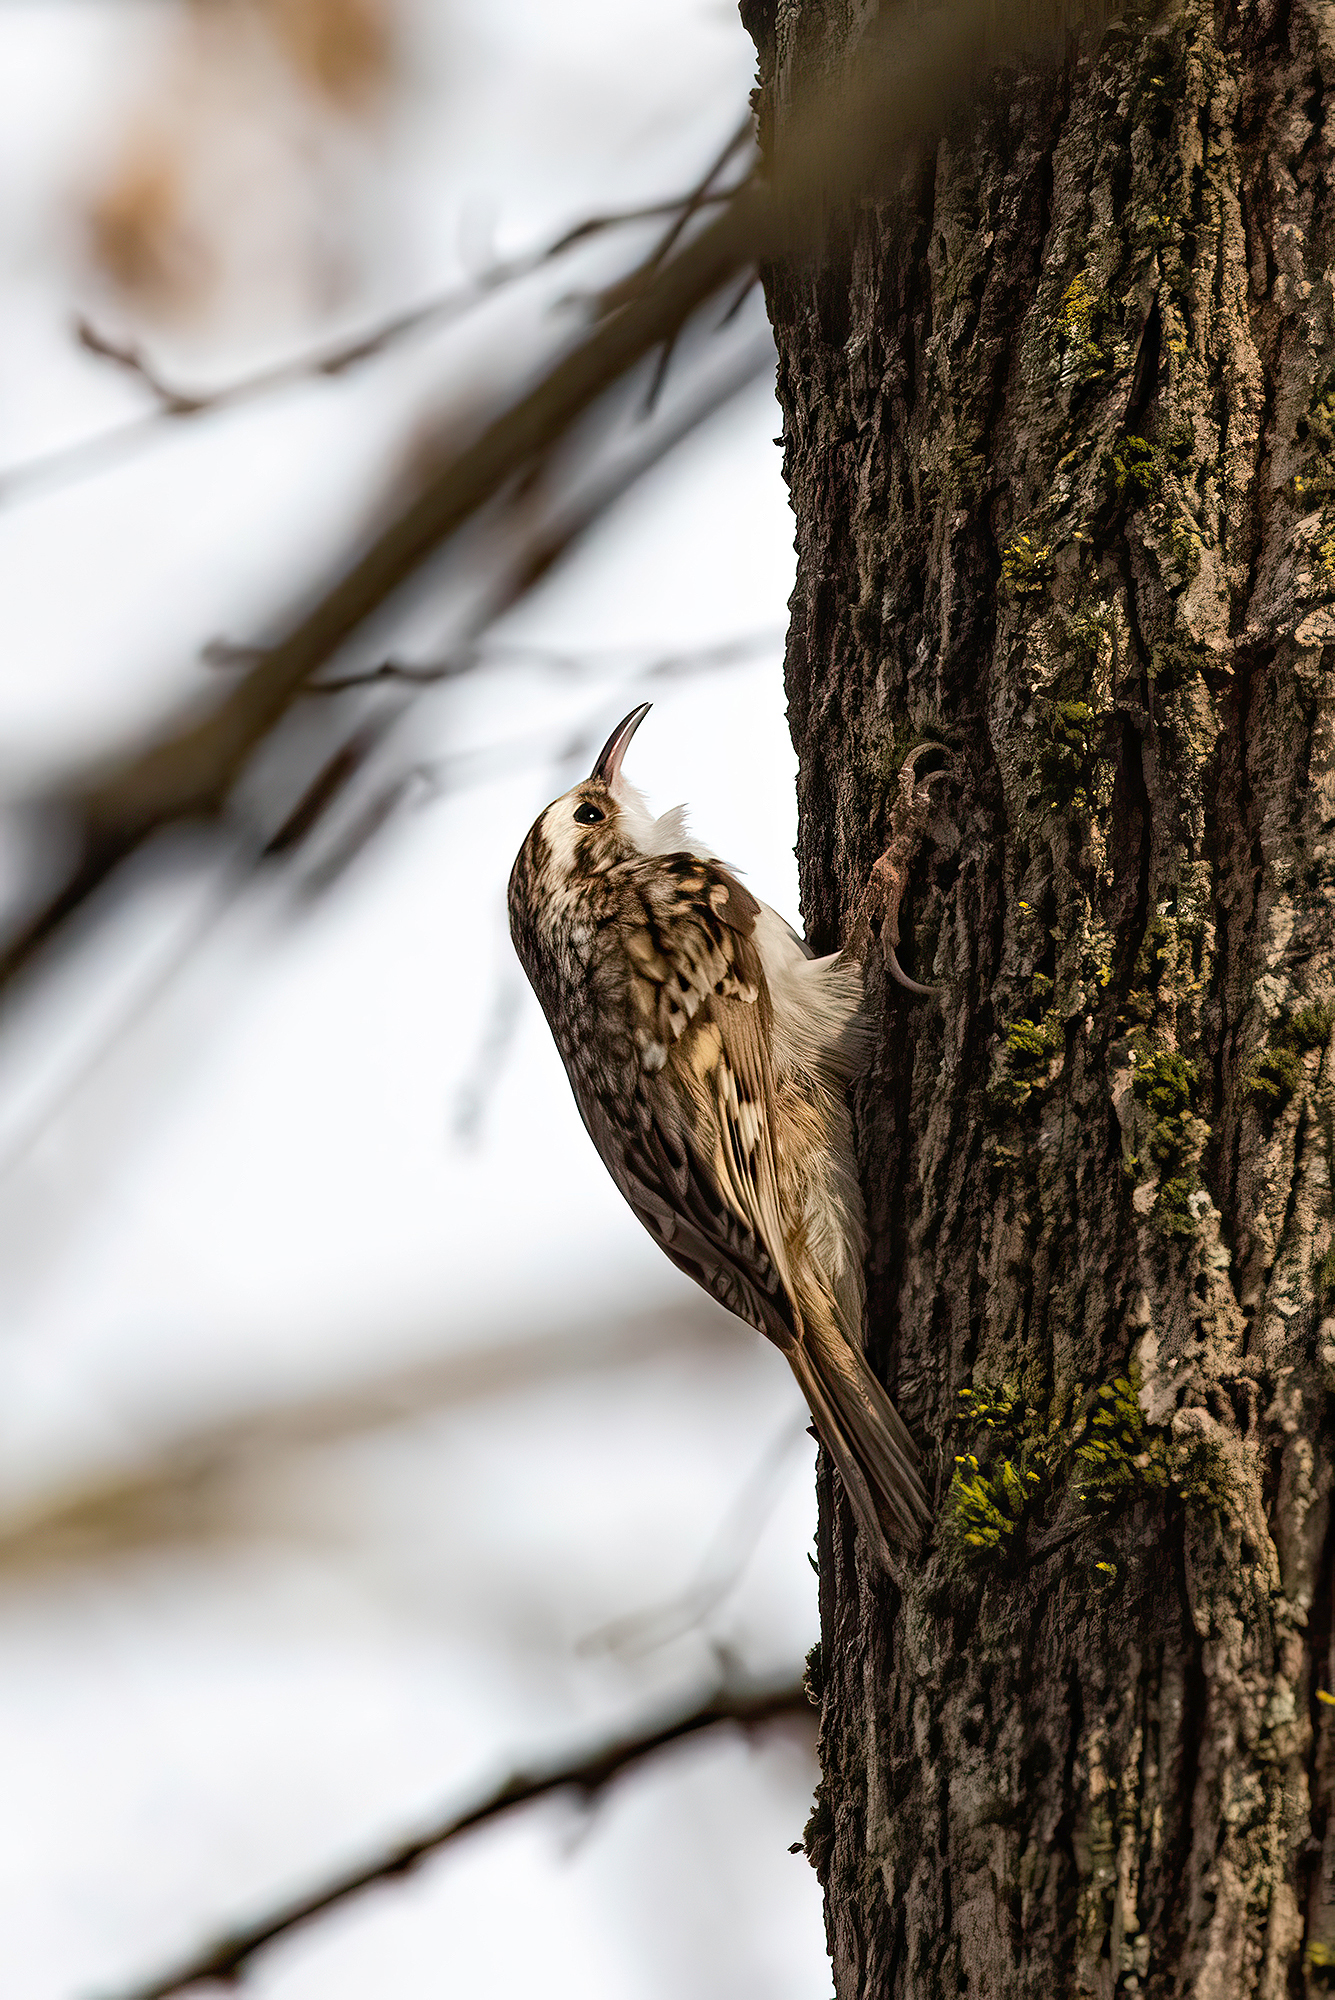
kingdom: Animalia
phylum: Chordata
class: Aves
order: Passeriformes
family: Certhiidae
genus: Certhia
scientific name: Certhia familiaris
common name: Eurasian treecreeper
